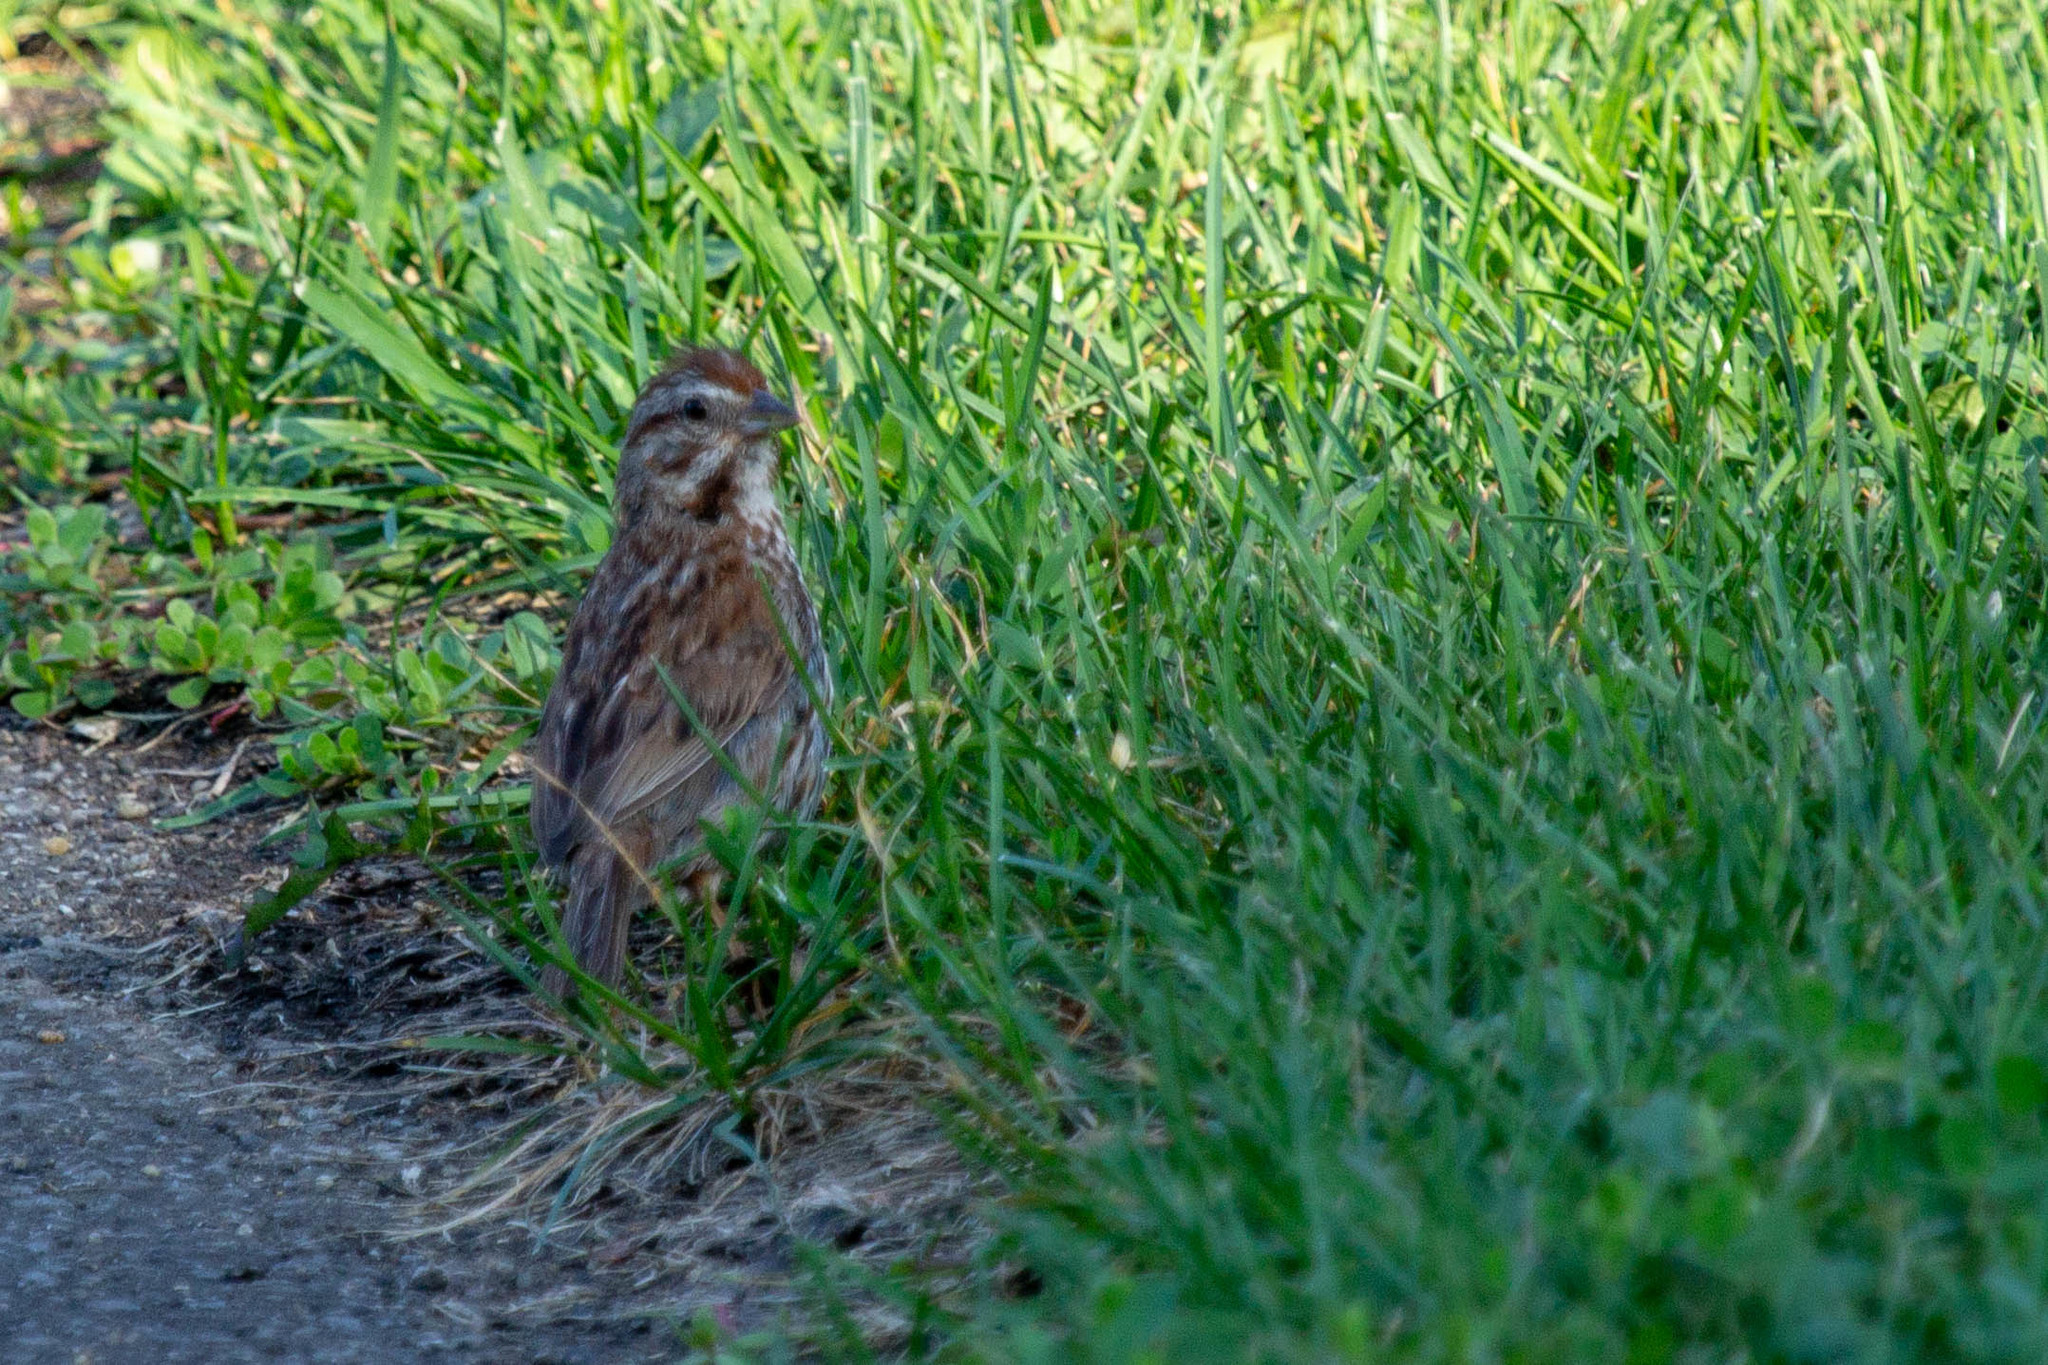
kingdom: Animalia
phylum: Chordata
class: Aves
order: Passeriformes
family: Passerellidae
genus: Melospiza
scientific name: Melospiza melodia
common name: Song sparrow
